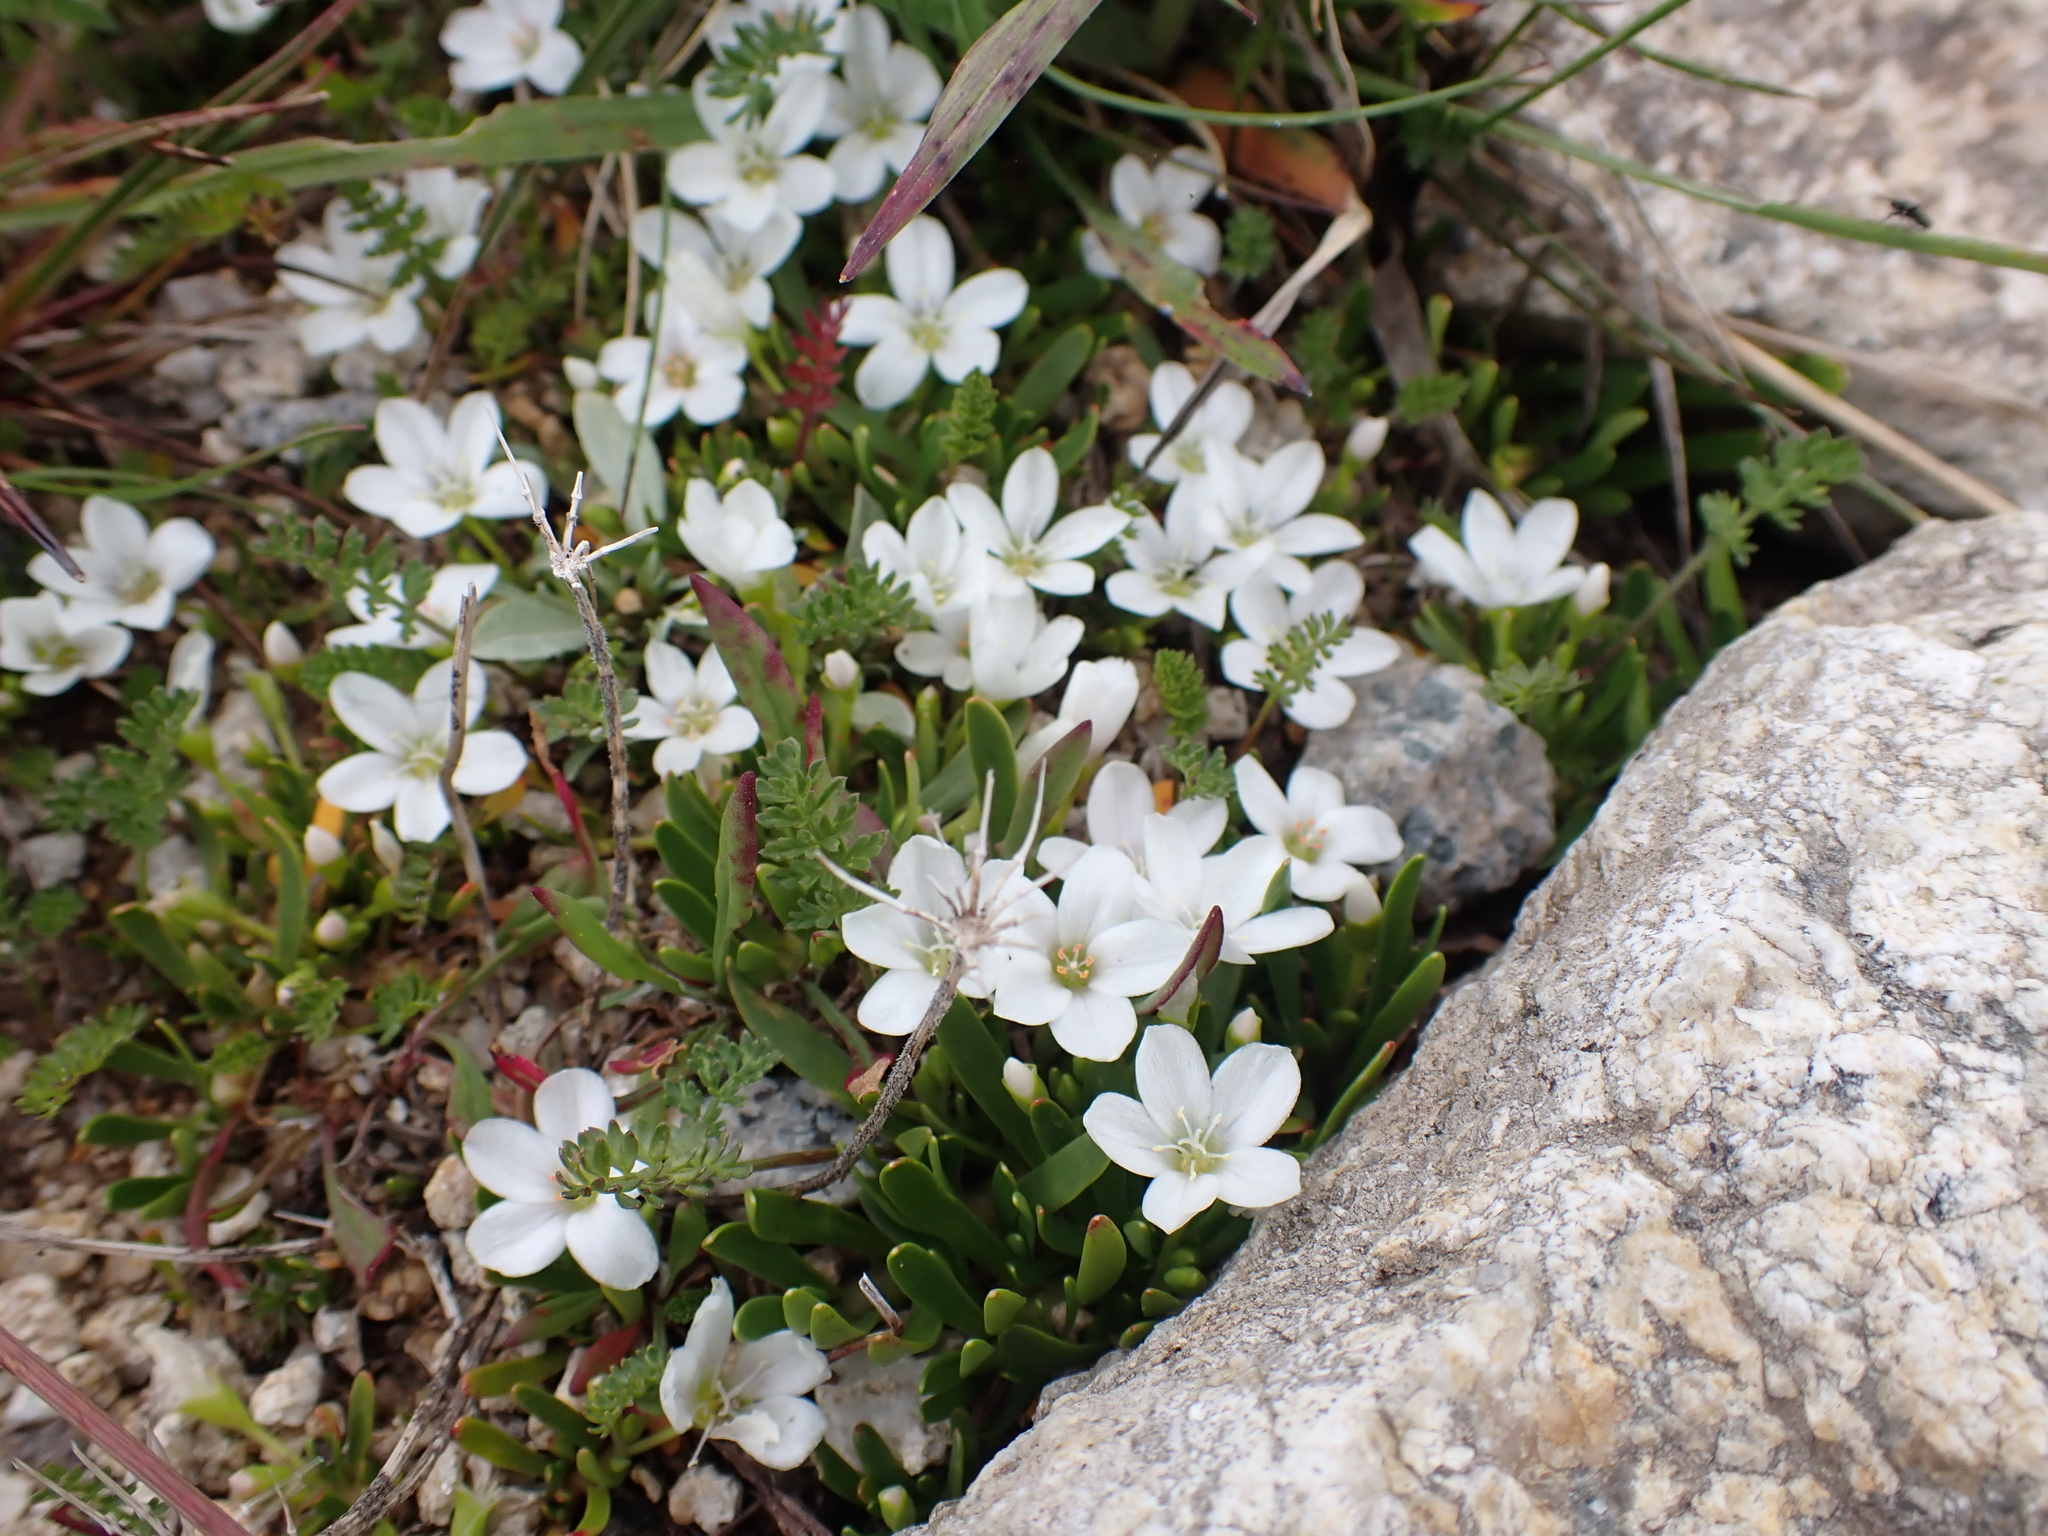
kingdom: Plantae
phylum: Tracheophyta
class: Magnoliopsida
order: Caryophyllales
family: Montiaceae
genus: Montia
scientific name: Montia australasica
